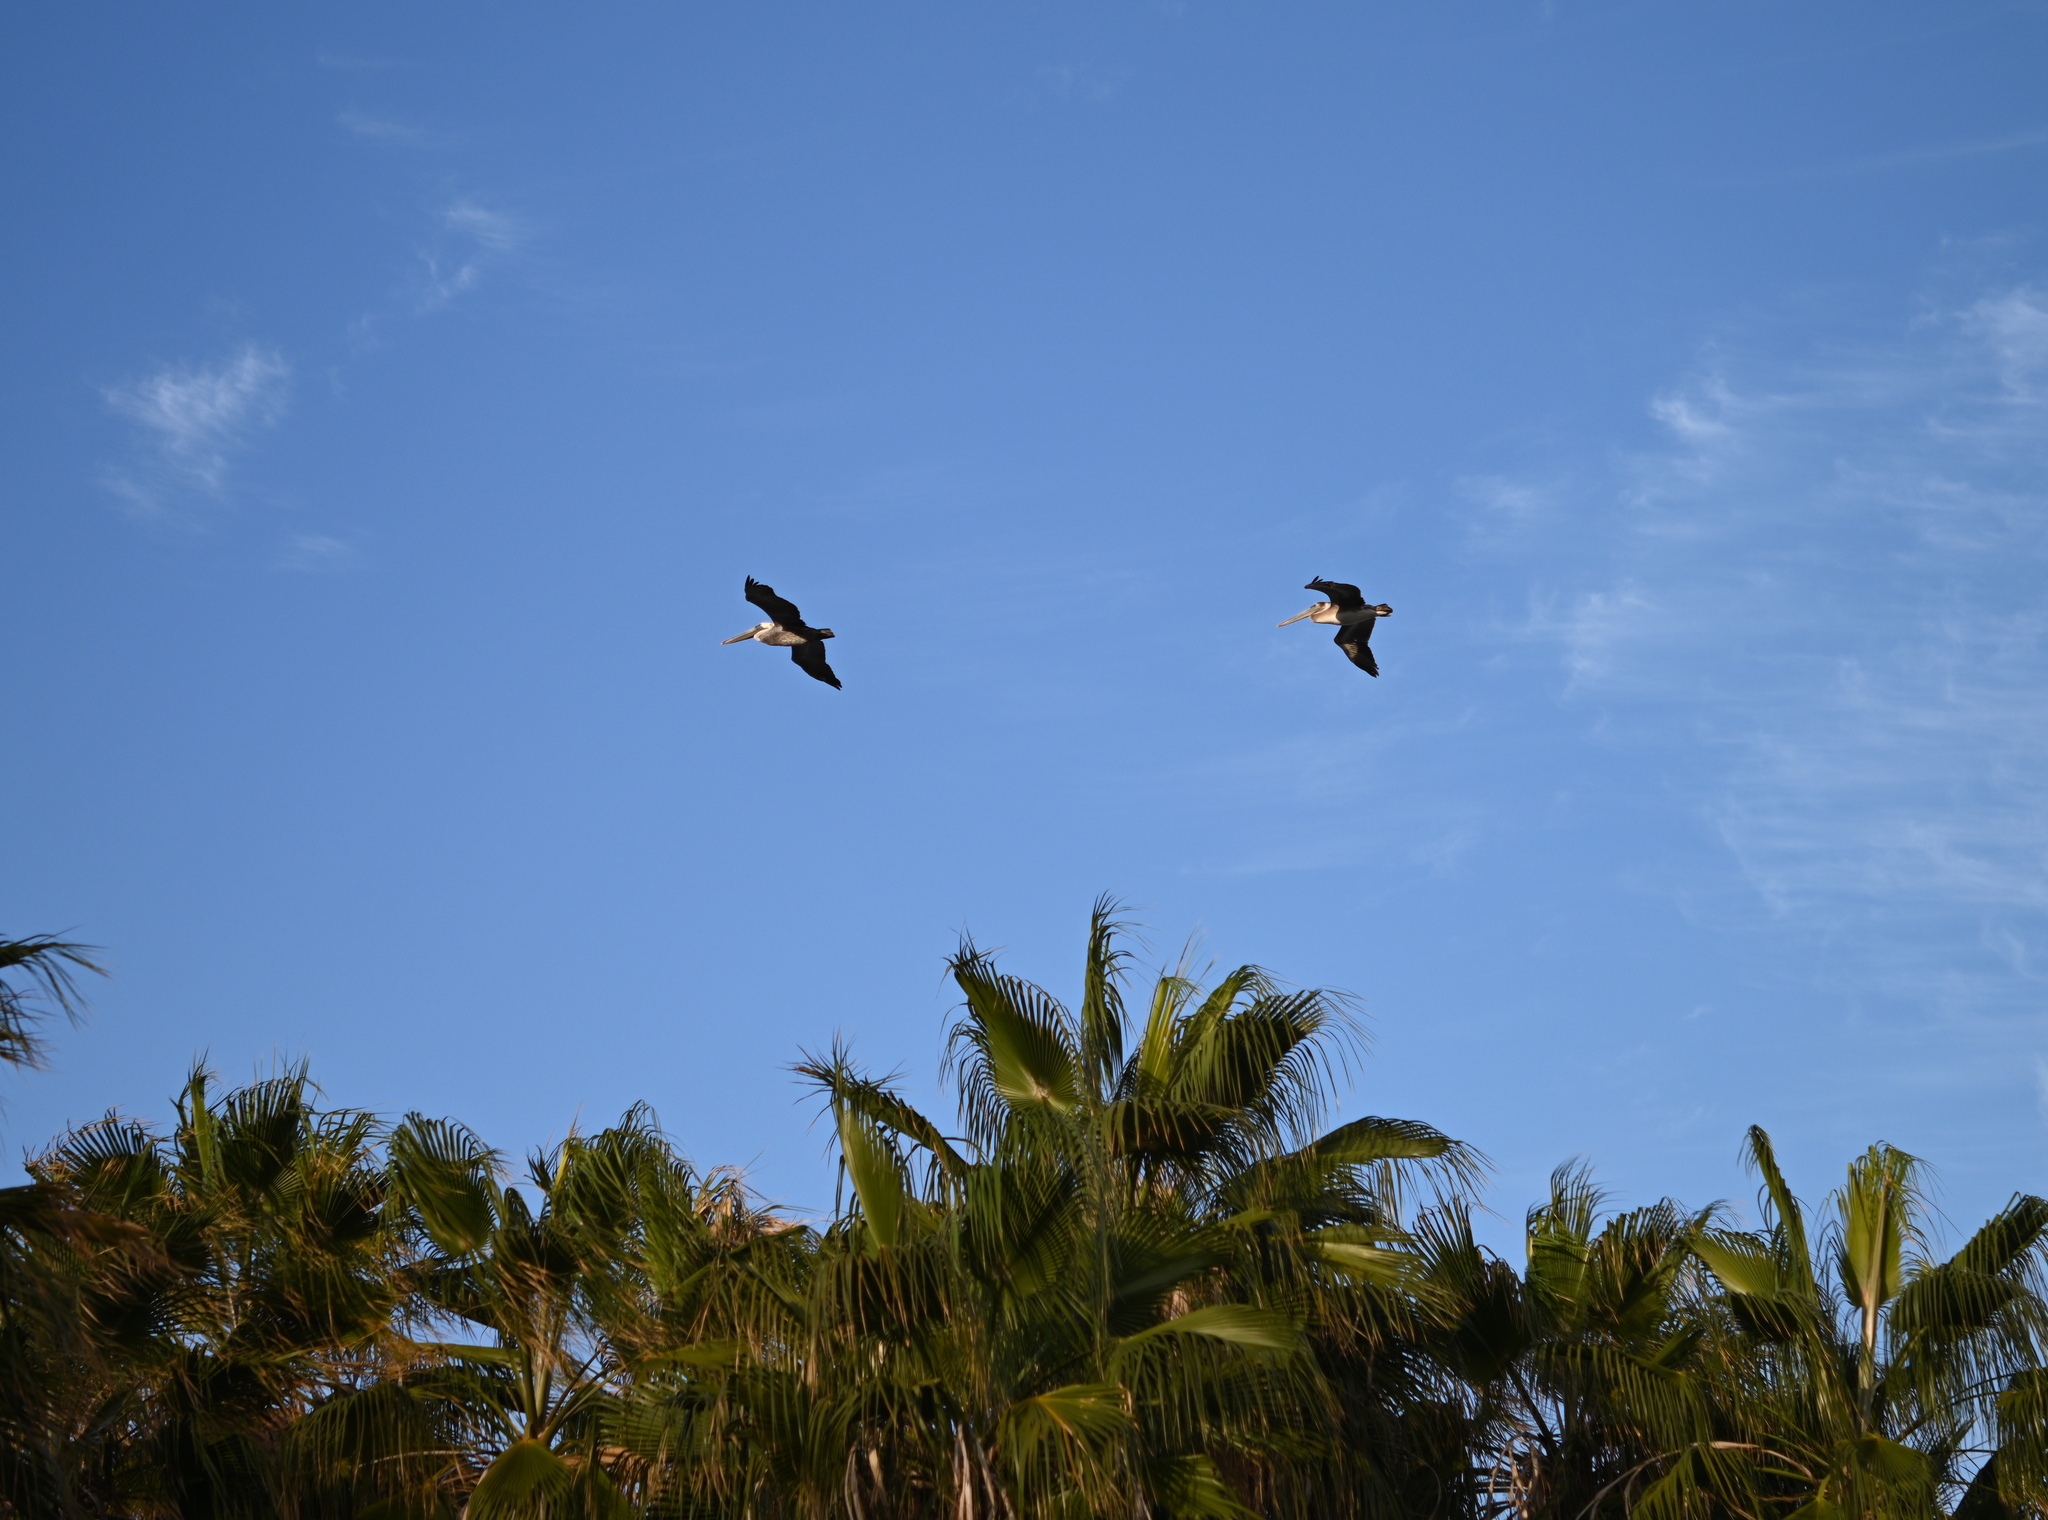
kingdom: Animalia
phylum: Chordata
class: Aves
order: Pelecaniformes
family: Pelecanidae
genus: Pelecanus
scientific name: Pelecanus occidentalis
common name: Brown pelican
